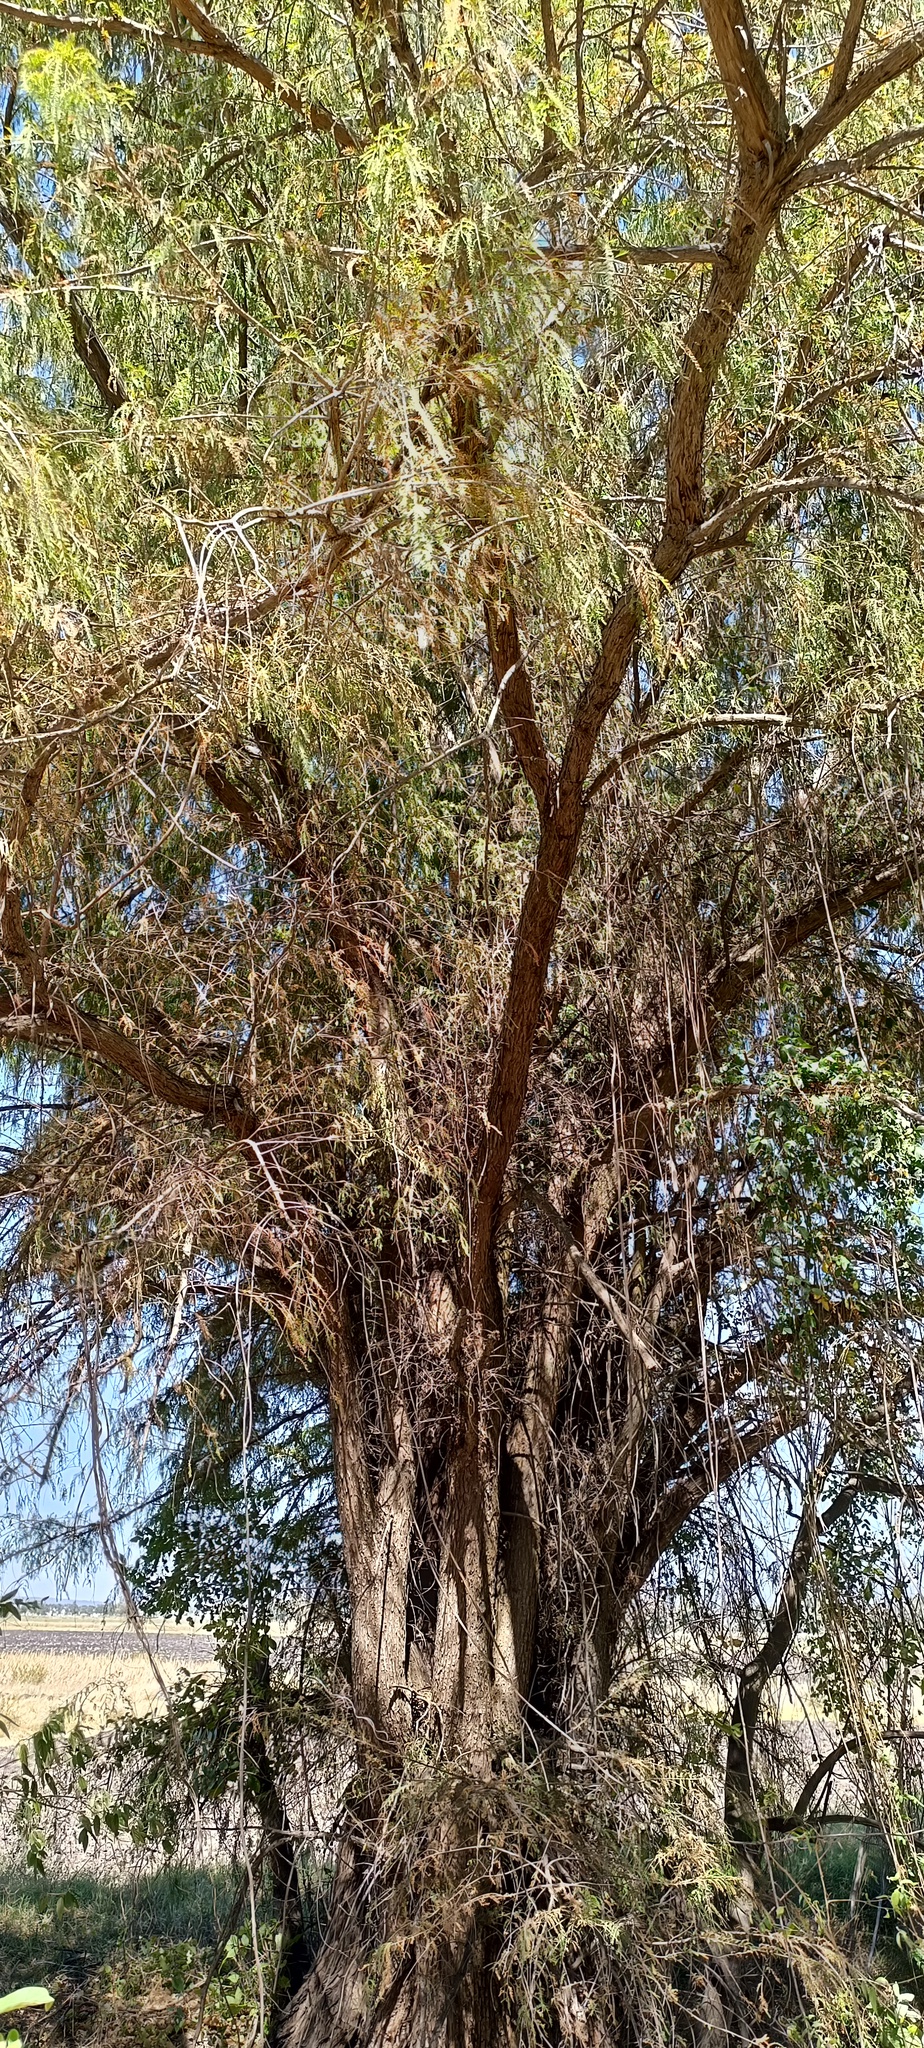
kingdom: Plantae
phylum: Tracheophyta
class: Pinopsida
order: Pinales
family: Cupressaceae
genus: Taxodium
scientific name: Taxodium mucronatum
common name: Montezume bald cypress
